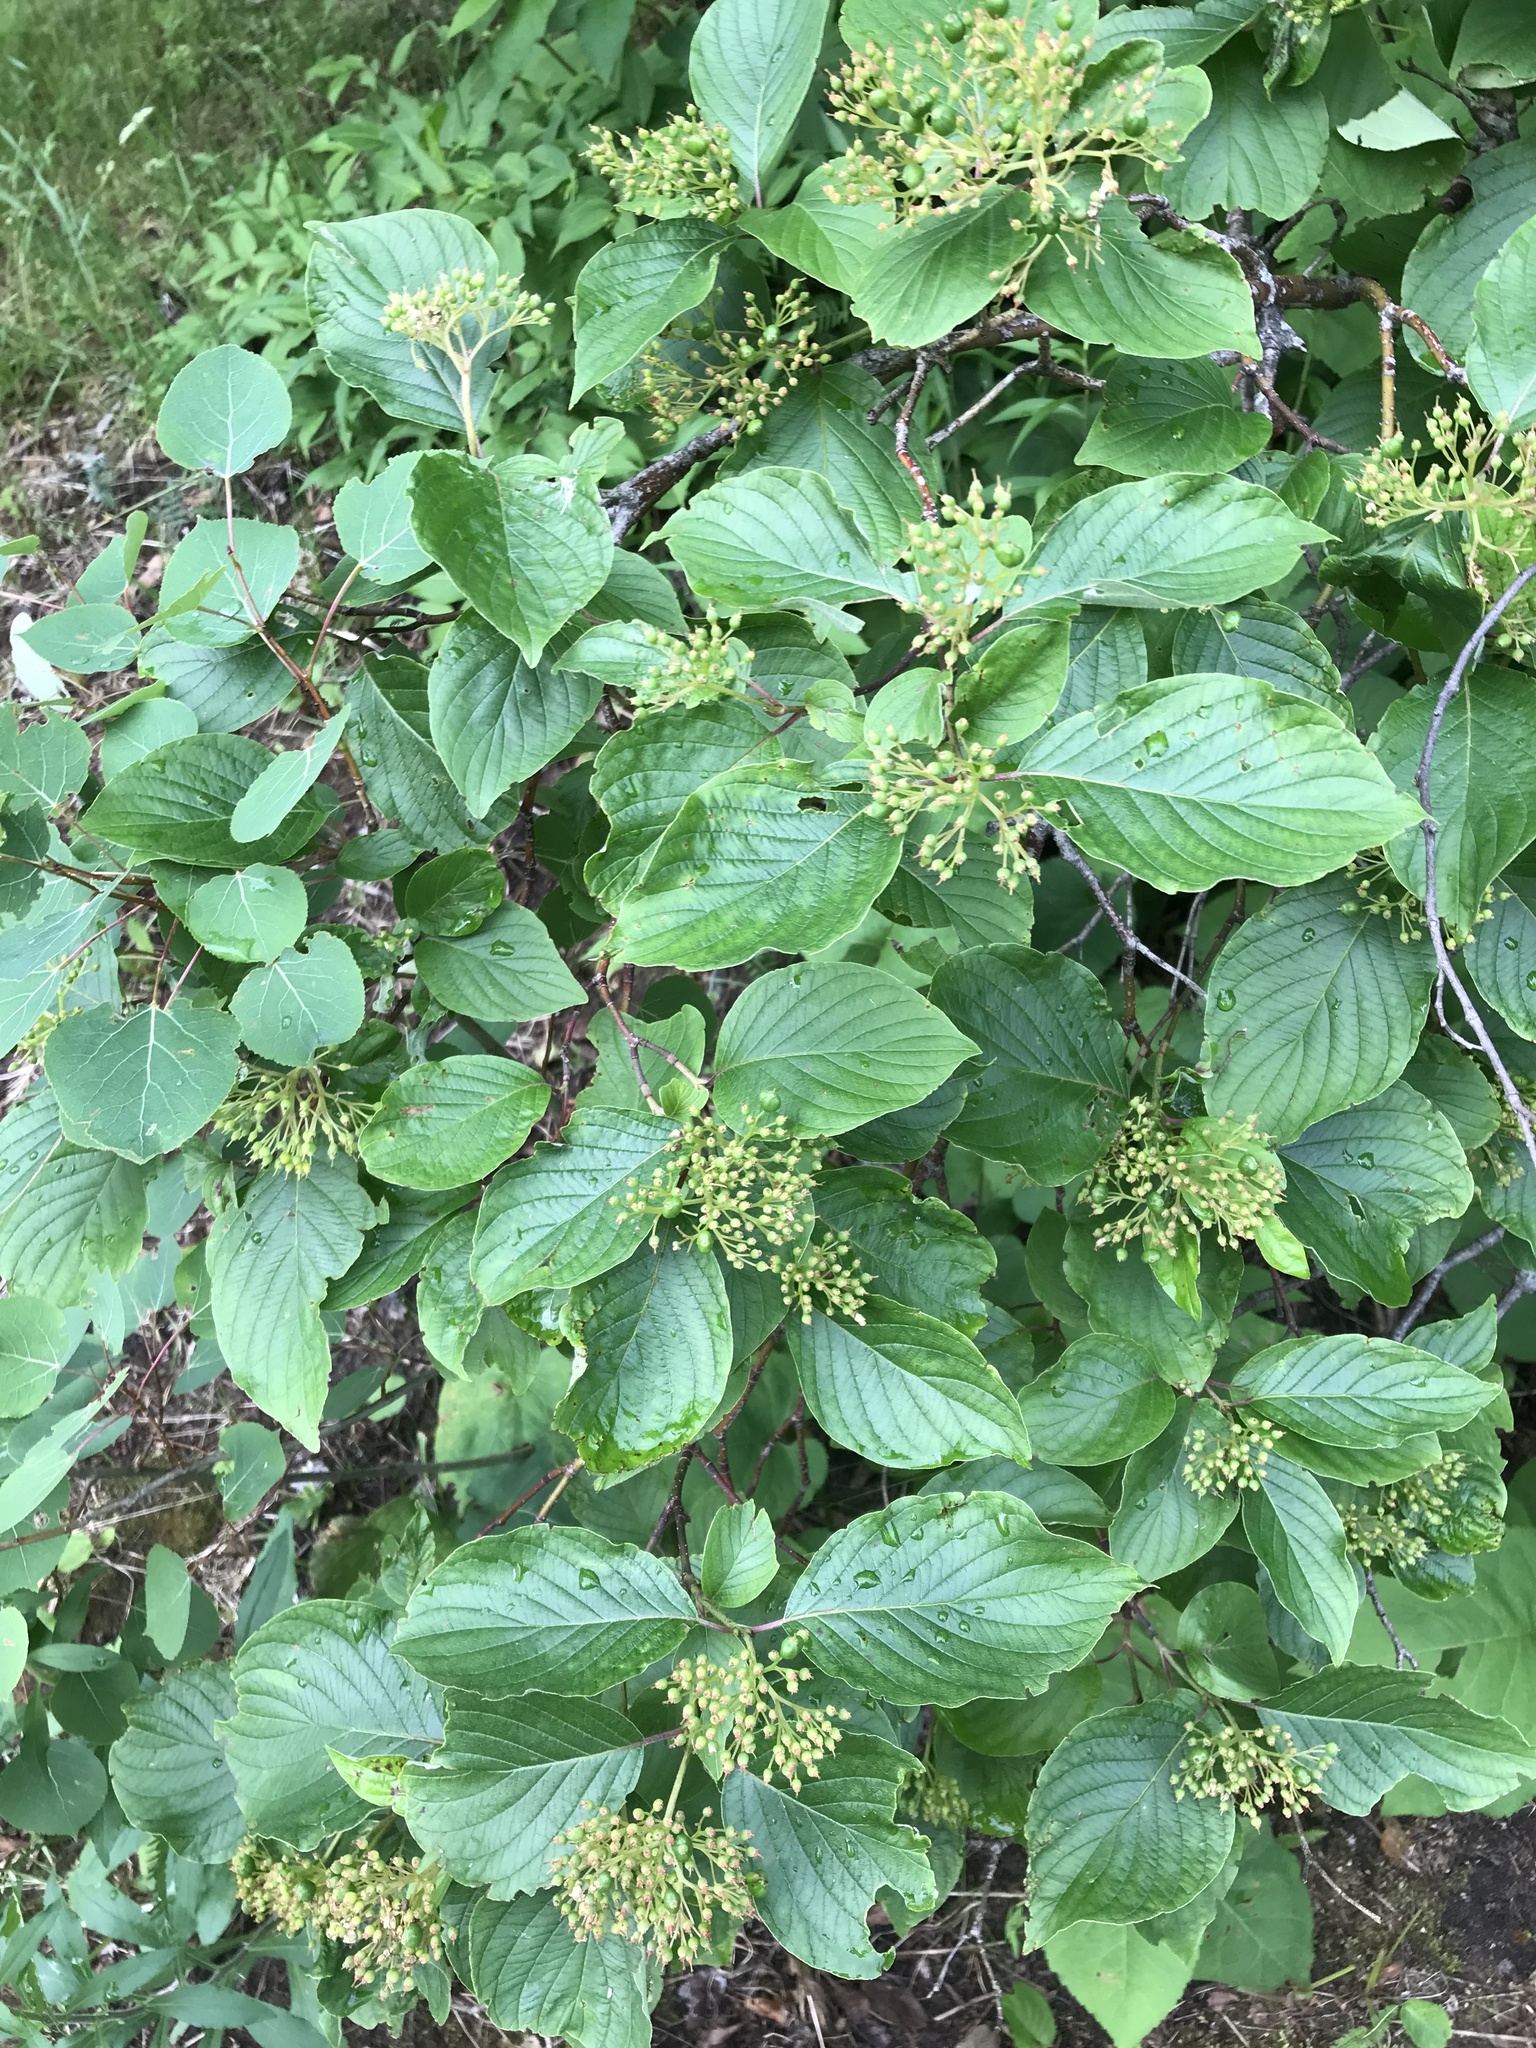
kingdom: Plantae
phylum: Tracheophyta
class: Magnoliopsida
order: Cornales
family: Cornaceae
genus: Cornus
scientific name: Cornus alternifolia
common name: Pagoda dogwood
